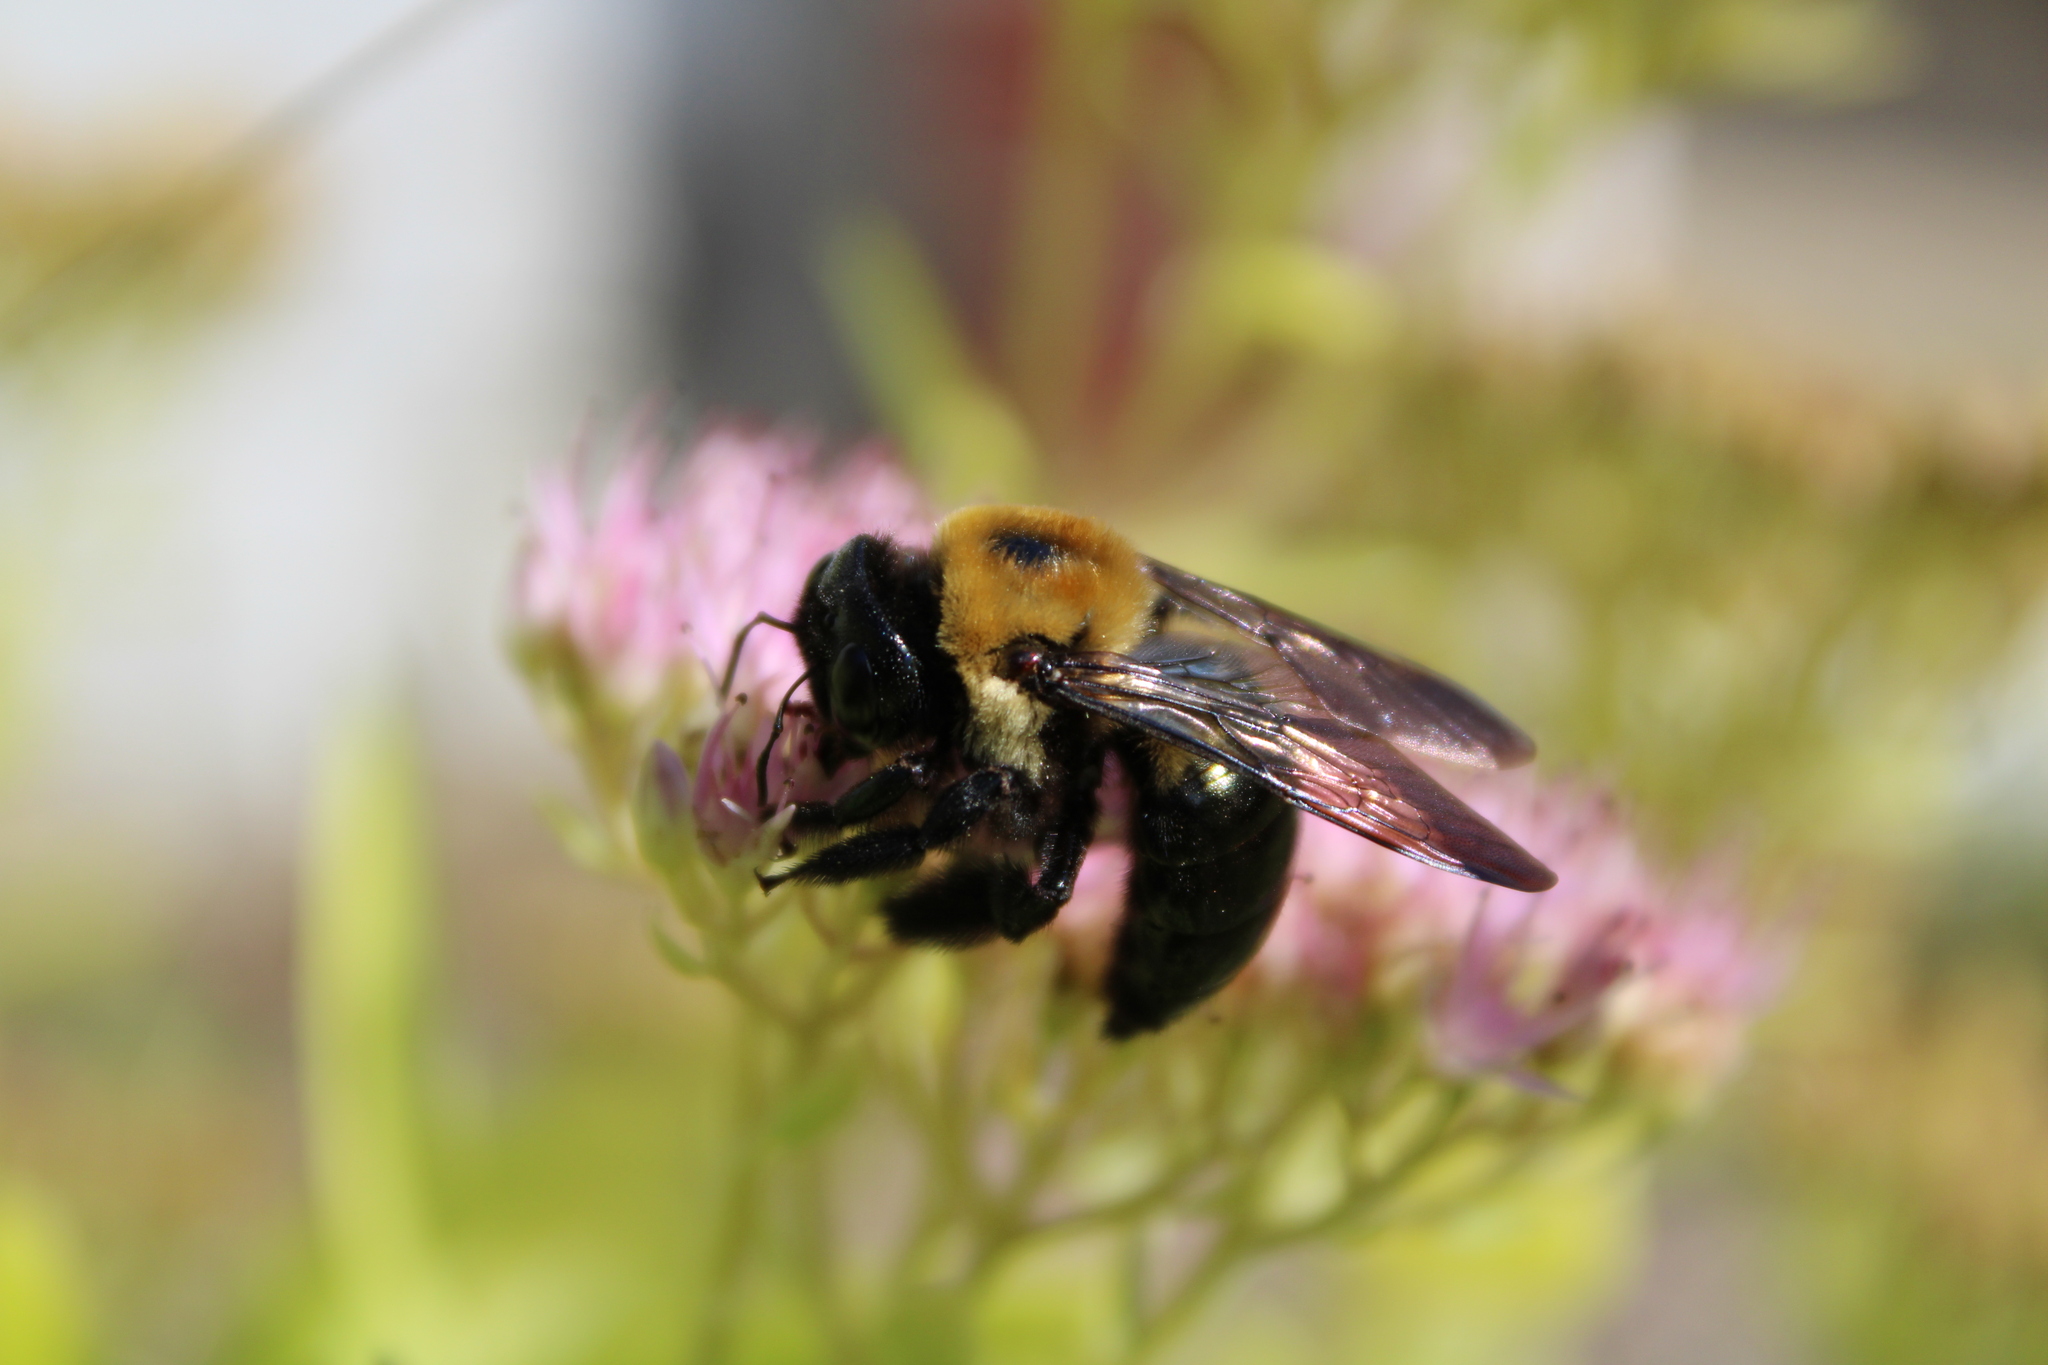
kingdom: Animalia
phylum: Arthropoda
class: Insecta
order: Hymenoptera
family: Apidae
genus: Xylocopa
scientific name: Xylocopa virginica
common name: Carpenter bee
